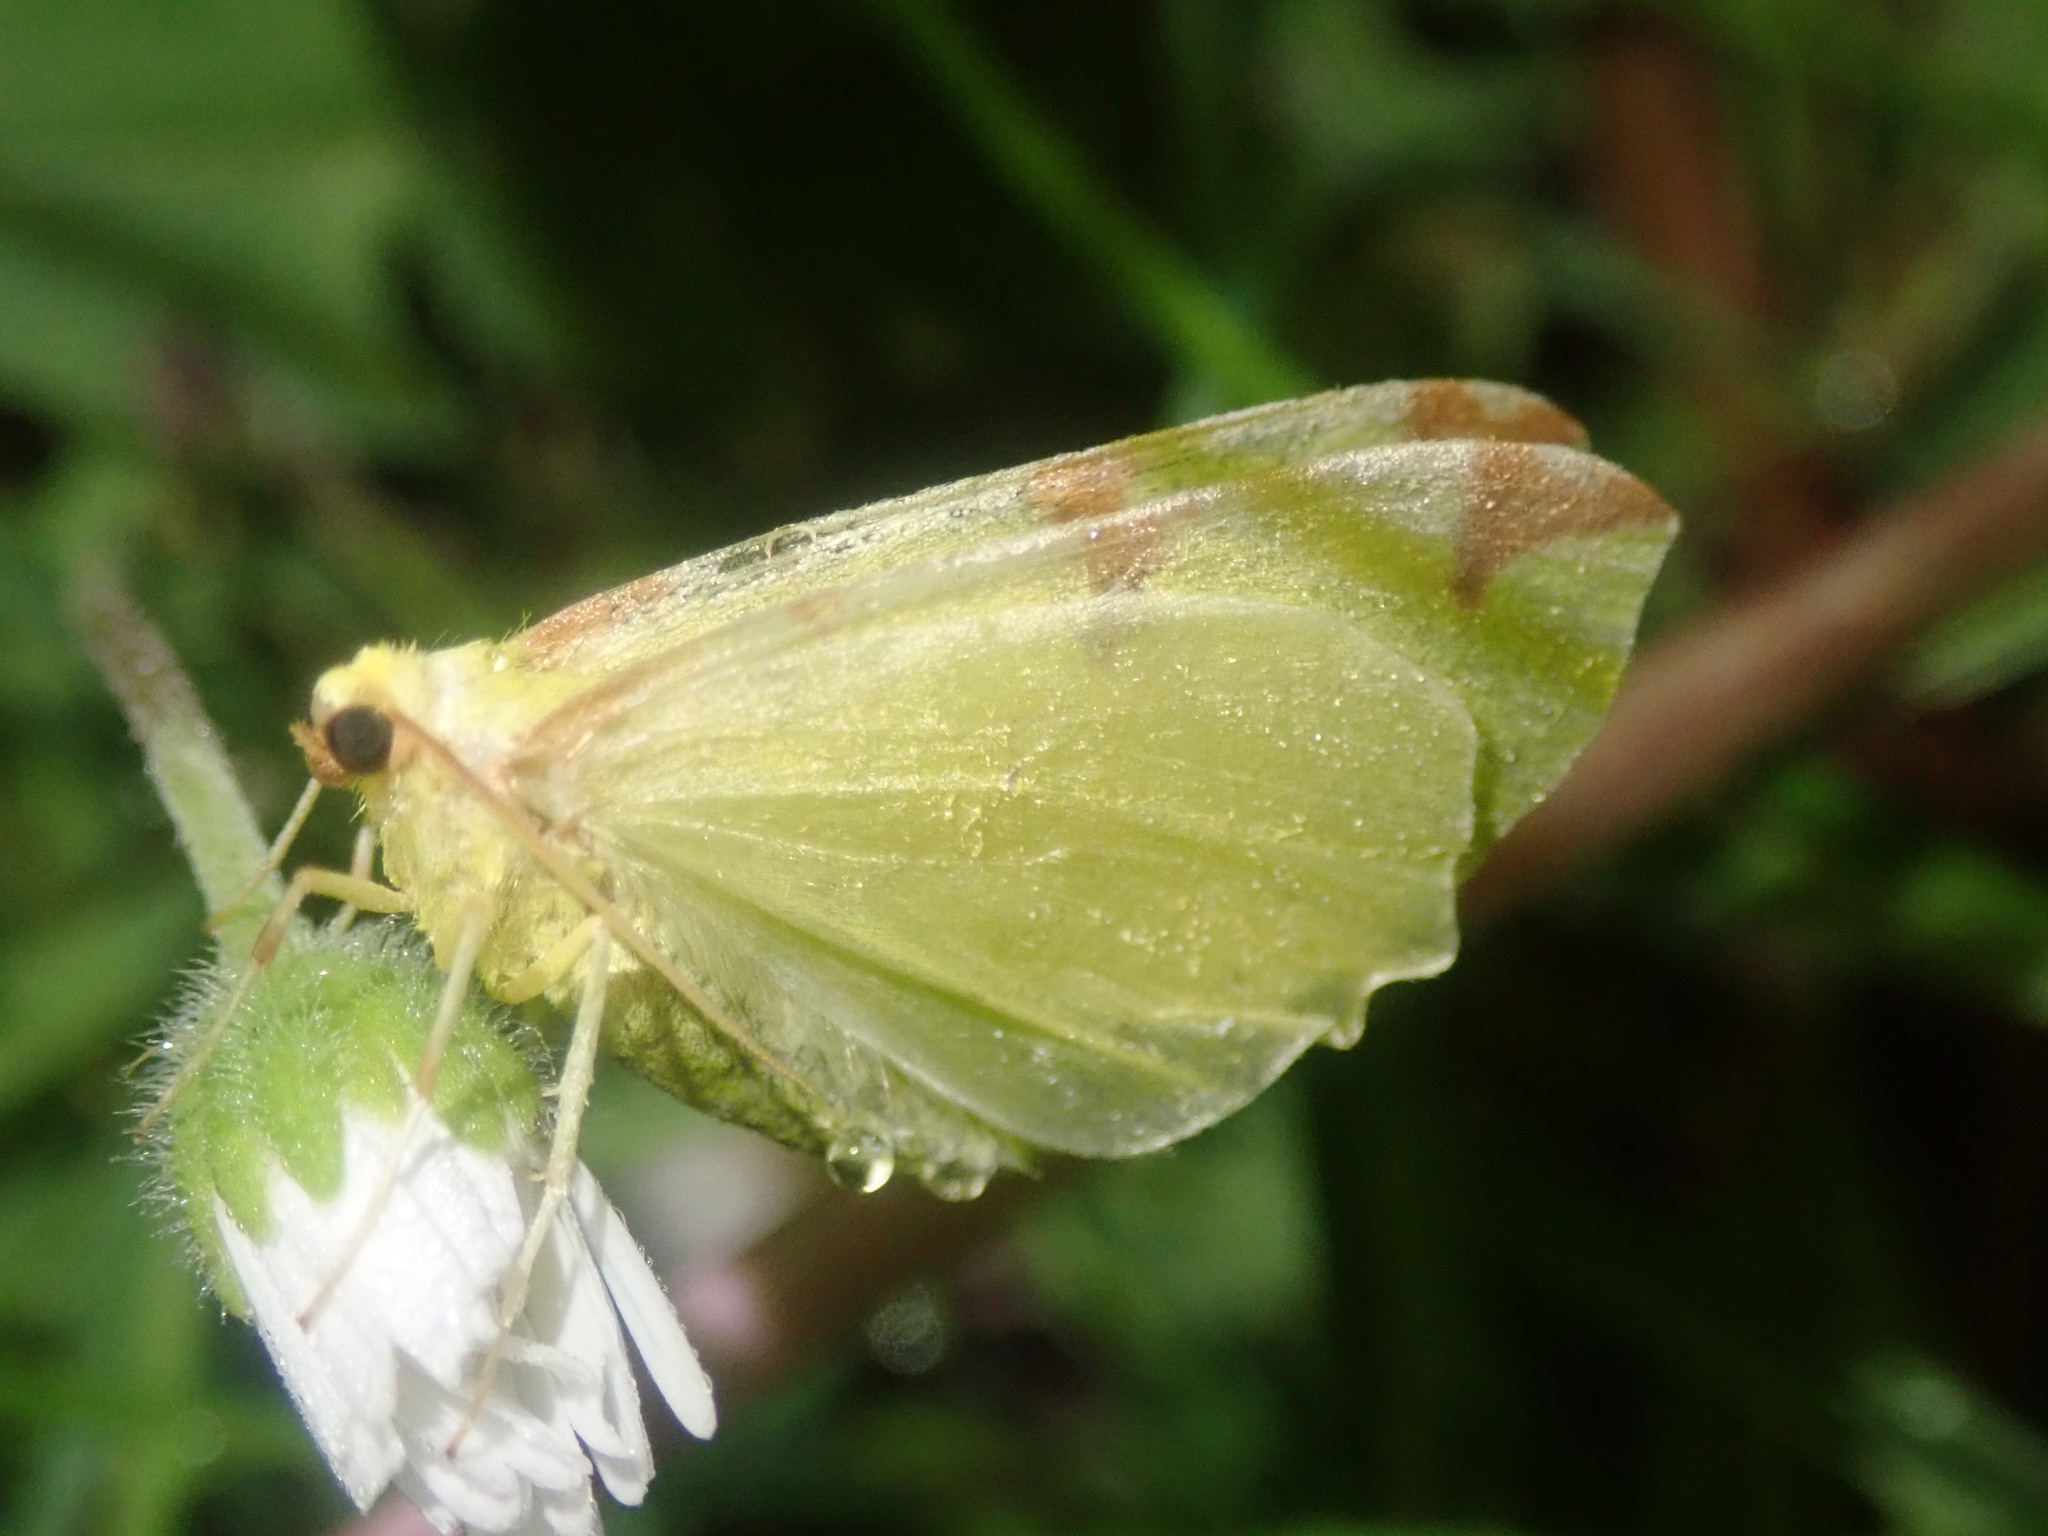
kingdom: Animalia
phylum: Arthropoda
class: Insecta
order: Lepidoptera
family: Geometridae
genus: Opisthograptis
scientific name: Opisthograptis luteolata
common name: Brimstone moth
